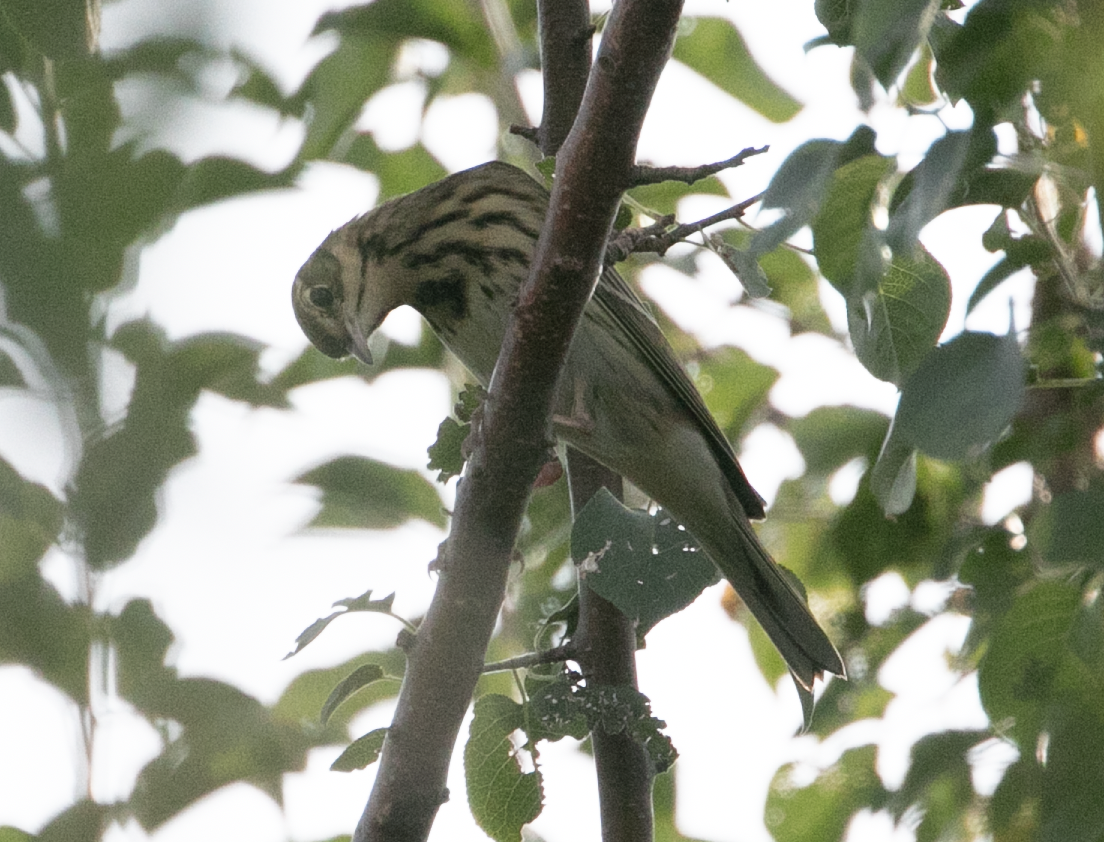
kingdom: Animalia
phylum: Chordata
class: Aves
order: Passeriformes
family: Motacillidae
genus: Anthus
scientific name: Anthus trivialis
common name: Tree pipit
